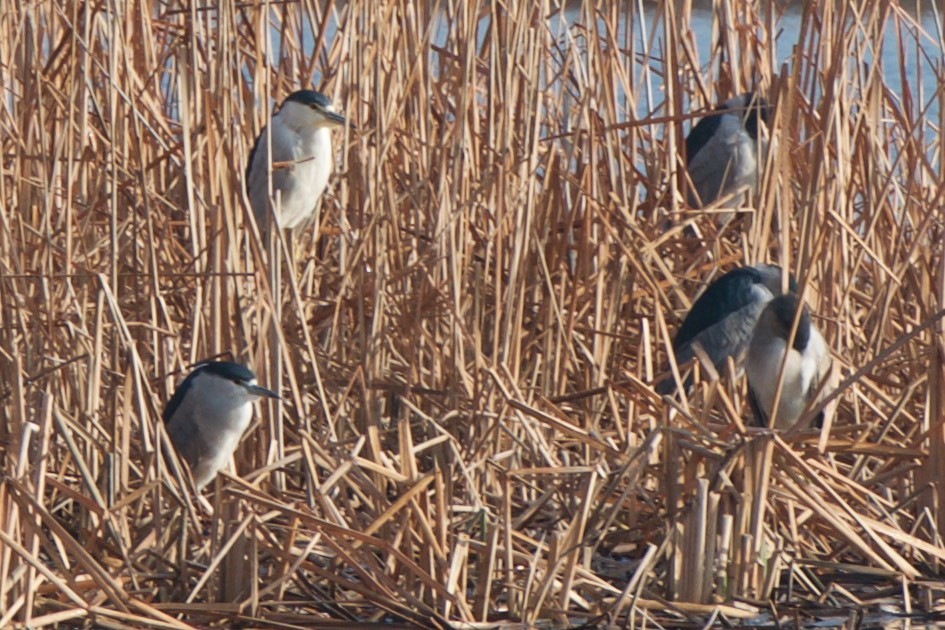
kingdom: Animalia
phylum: Chordata
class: Aves
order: Pelecaniformes
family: Ardeidae
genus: Nycticorax
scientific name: Nycticorax nycticorax
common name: Black-crowned night heron
